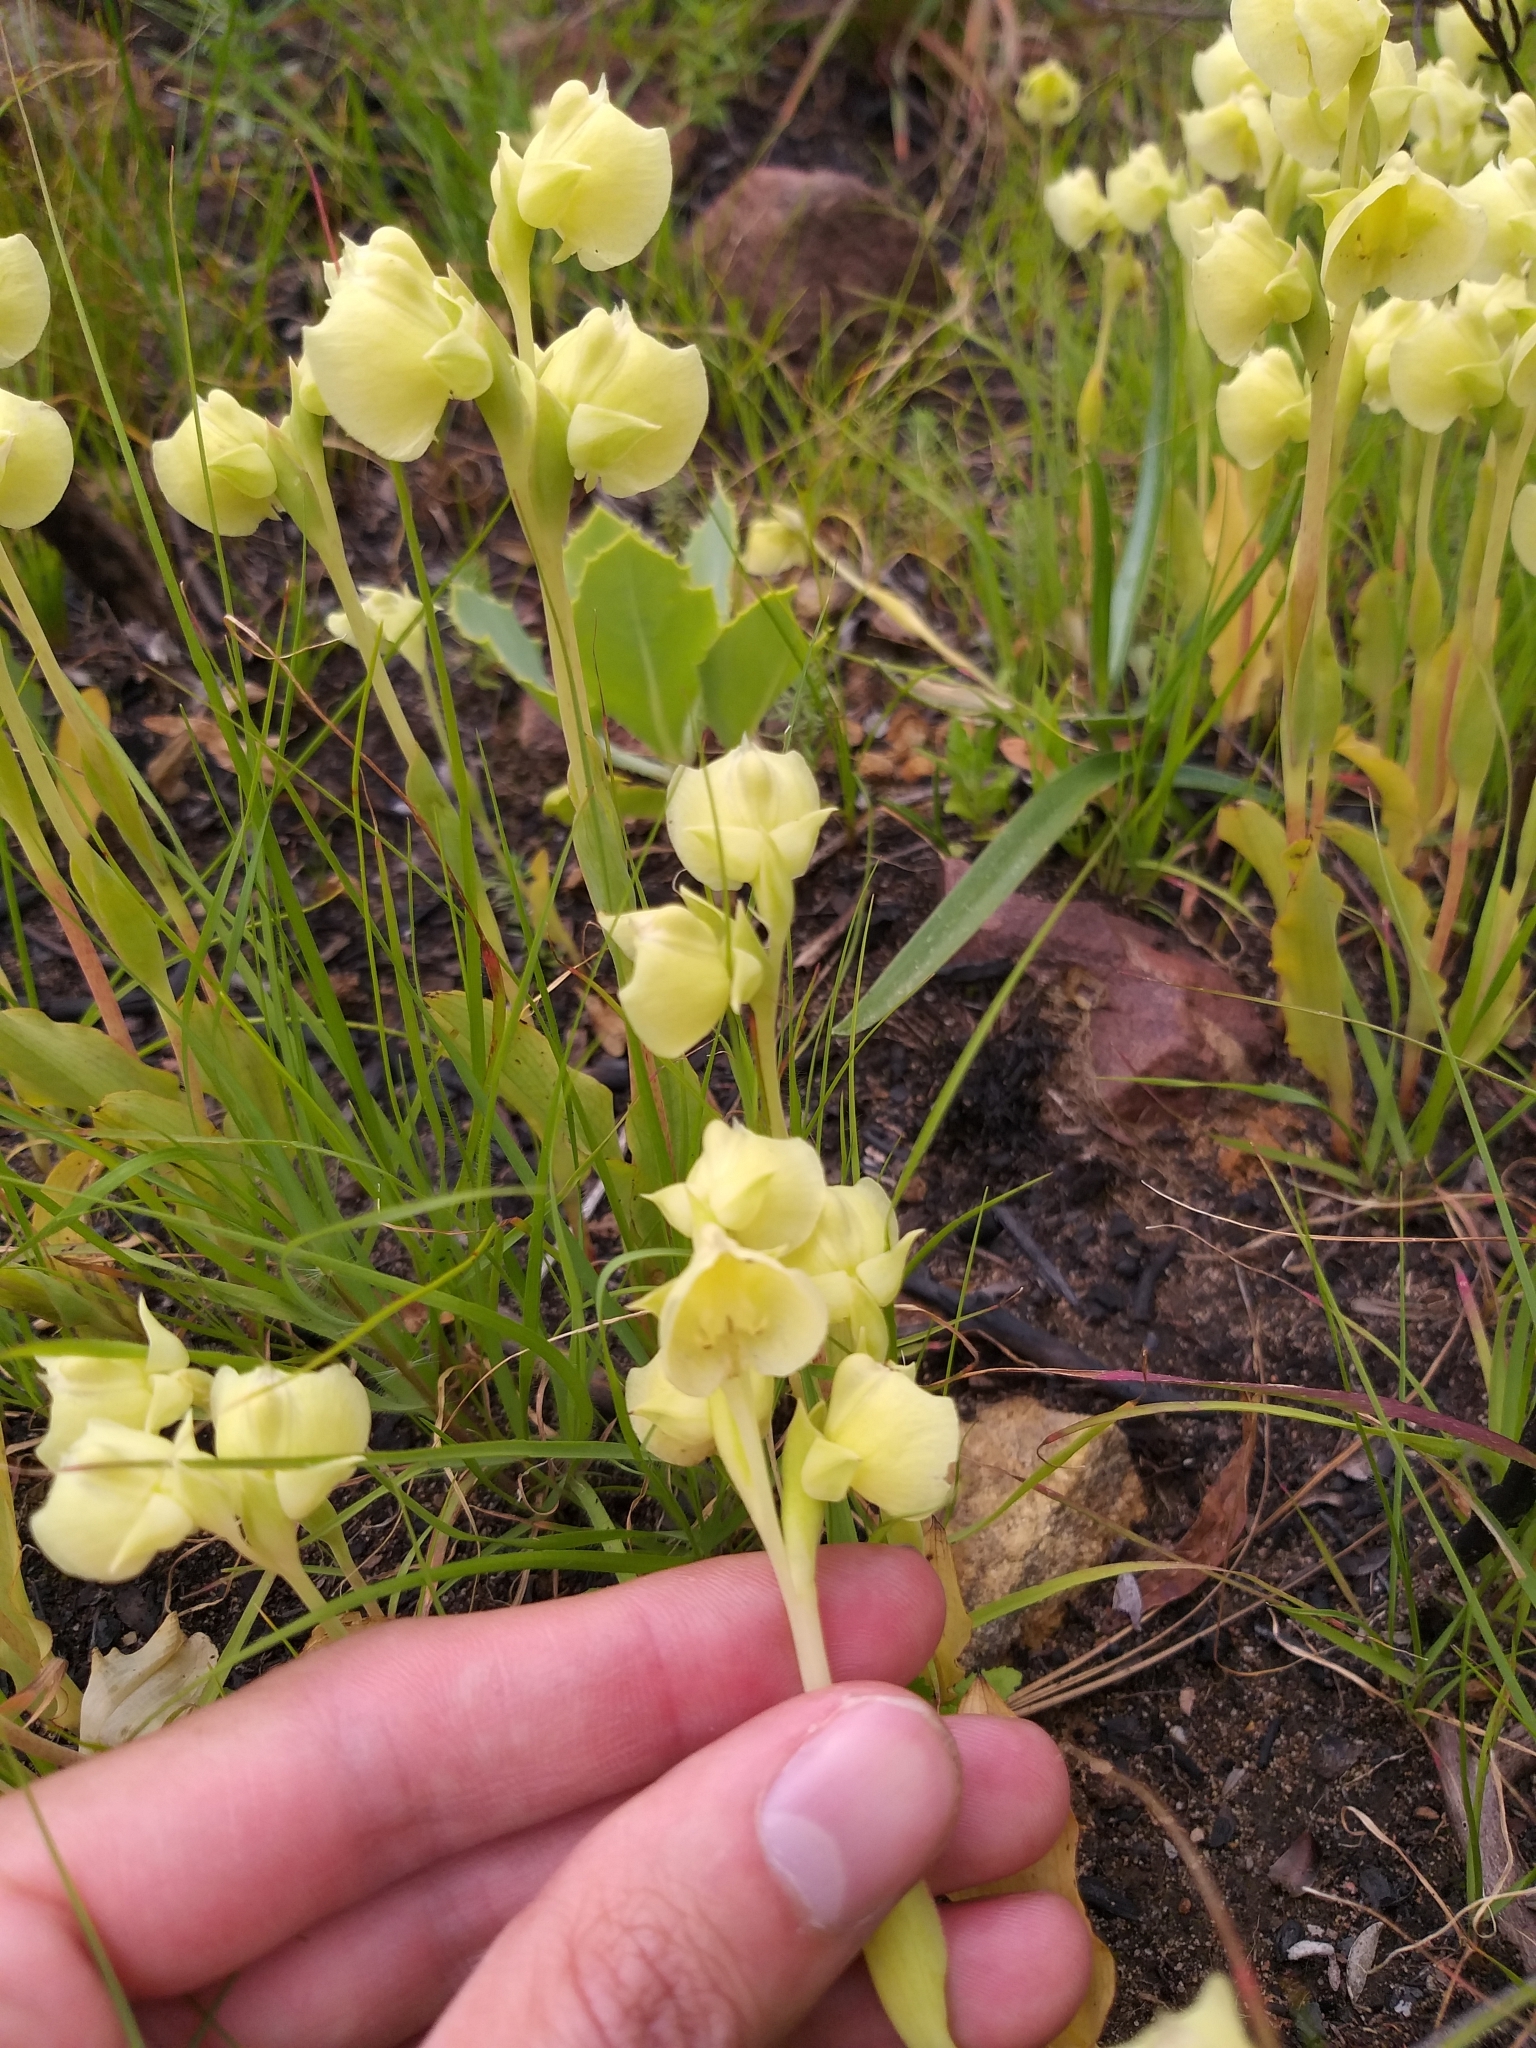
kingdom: Plantae
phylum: Tracheophyta
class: Liliopsida
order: Asparagales
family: Orchidaceae
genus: Pterygodium
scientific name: Pterygodium catholicum
